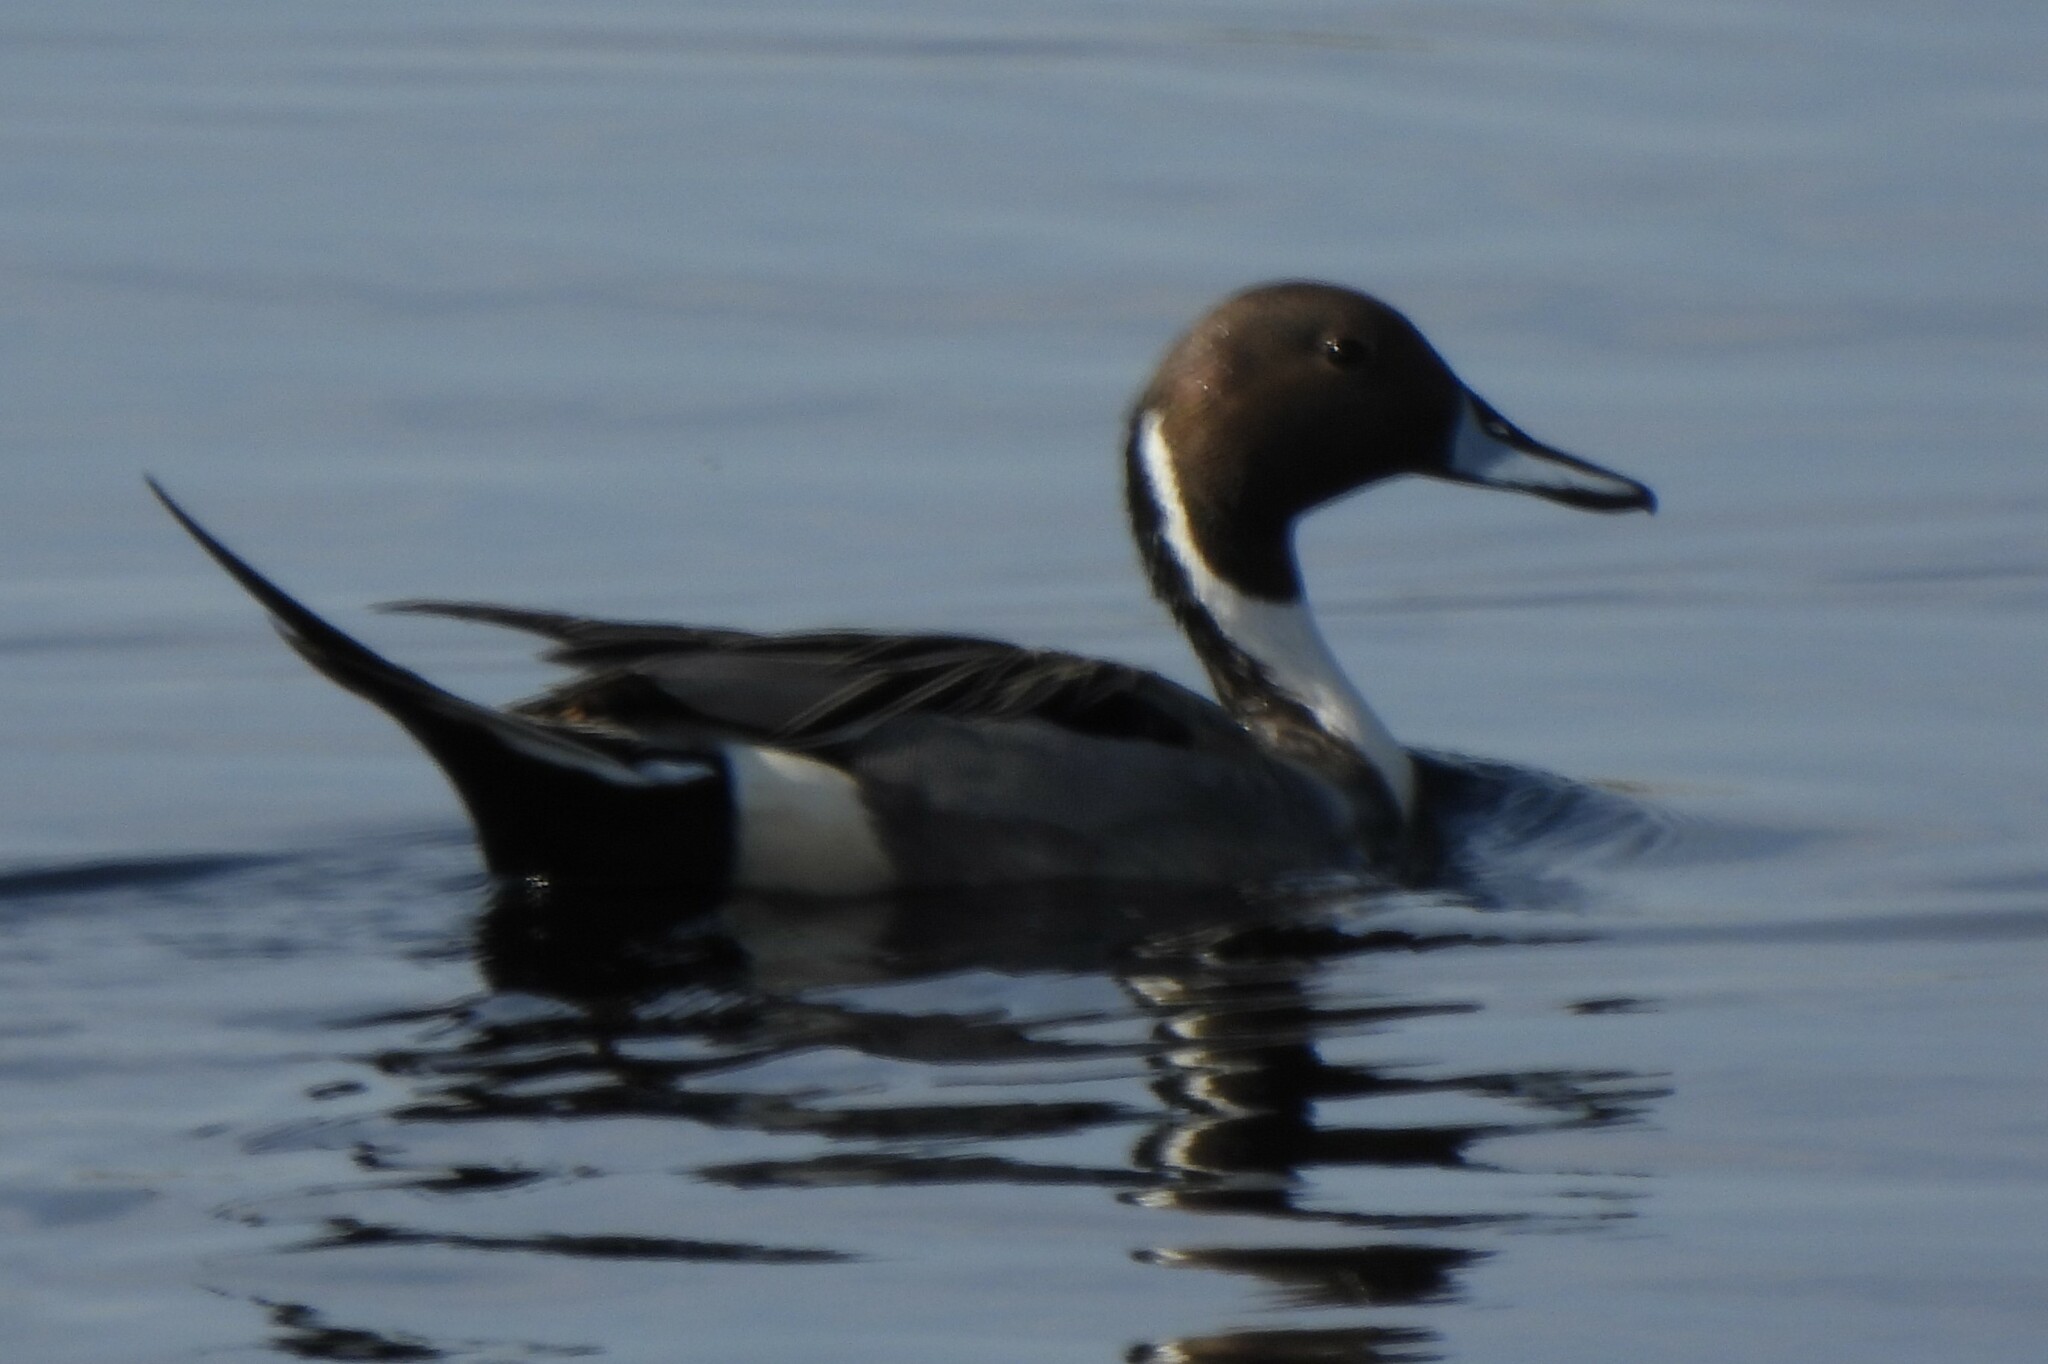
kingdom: Animalia
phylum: Chordata
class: Aves
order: Anseriformes
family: Anatidae
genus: Anas
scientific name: Anas acuta
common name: Northern pintail
